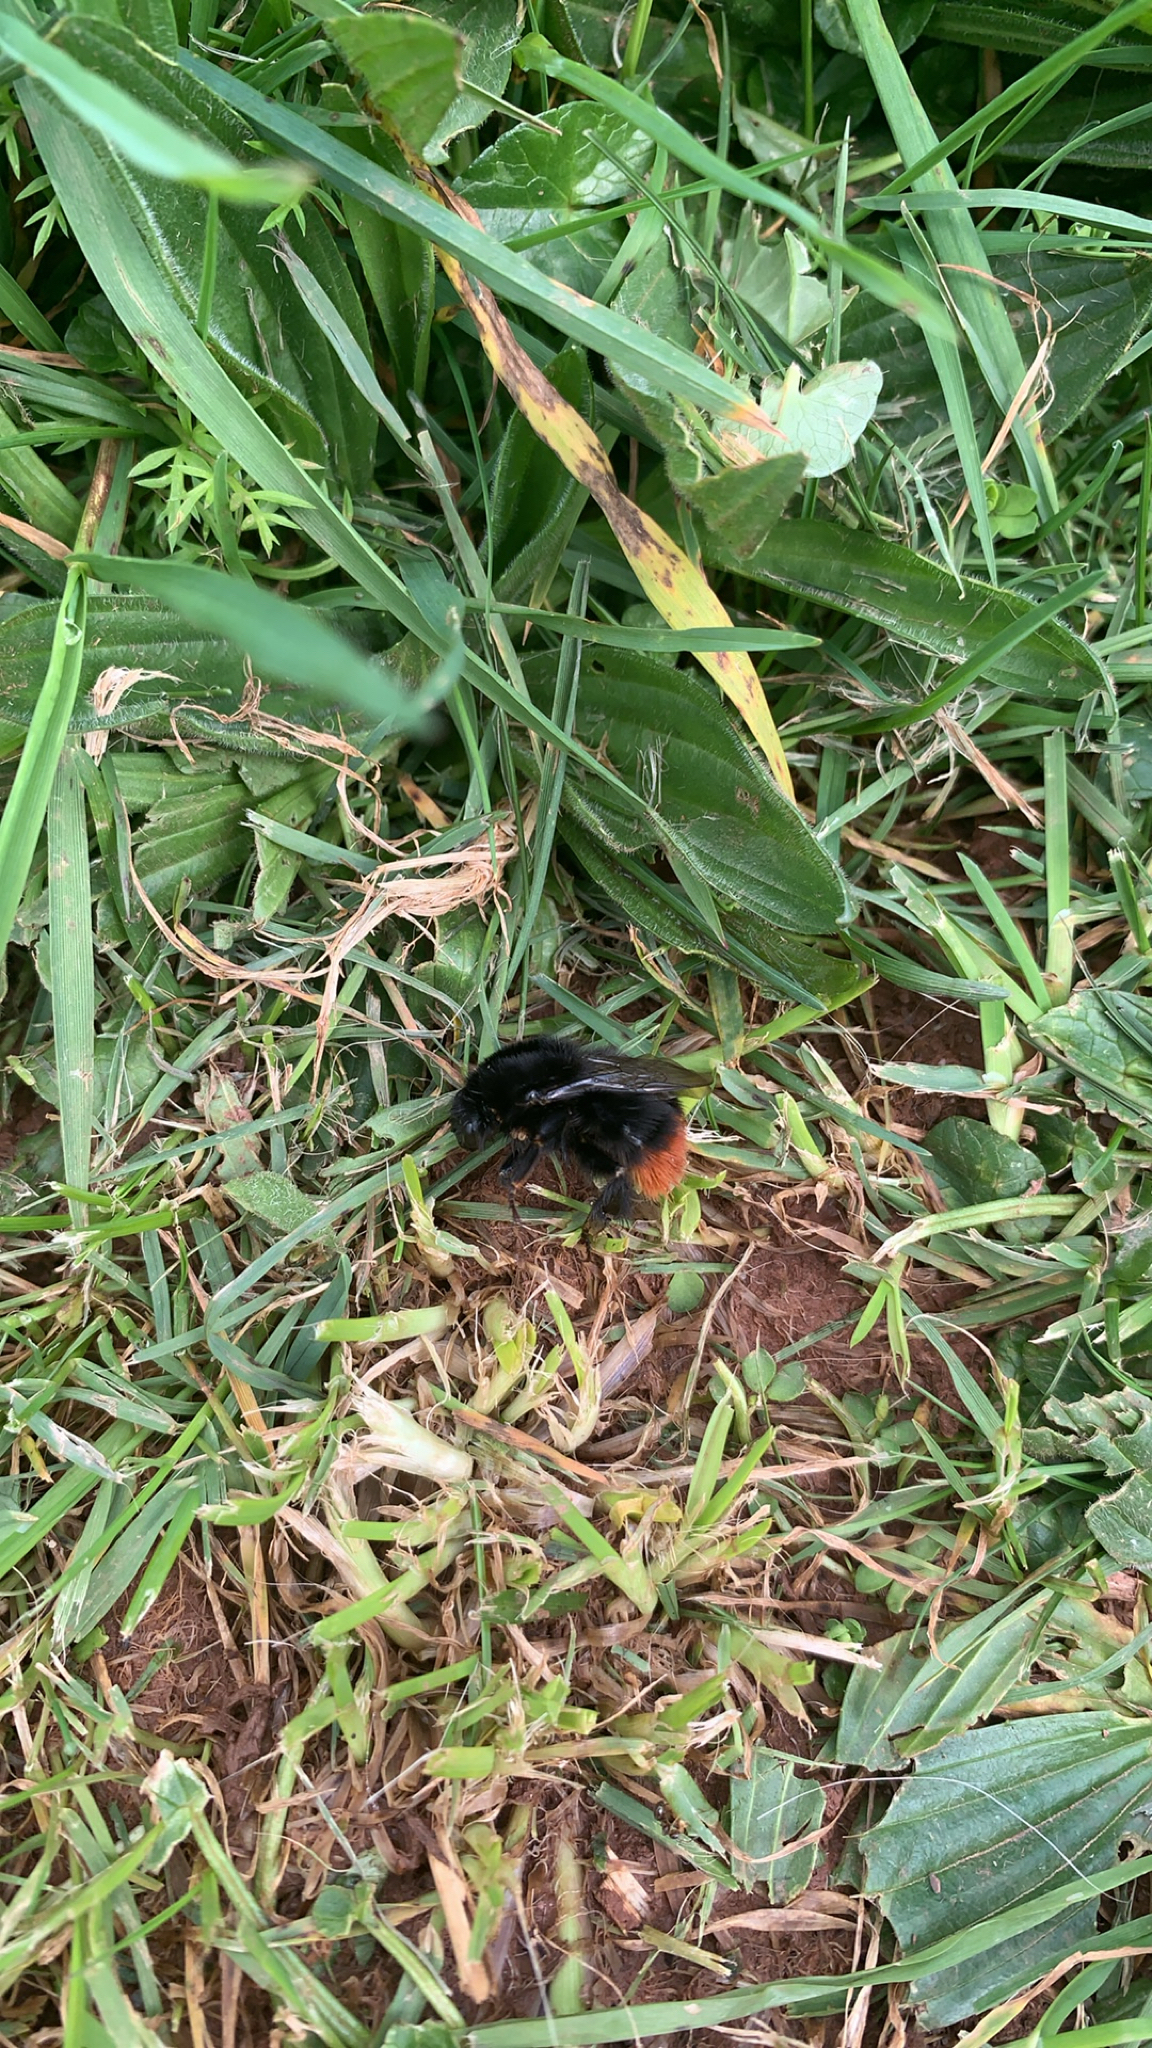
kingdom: Animalia
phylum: Arthropoda
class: Insecta
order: Hymenoptera
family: Apidae
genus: Bombus
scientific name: Bombus lapidarius
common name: Large red-tailed humble-bee
